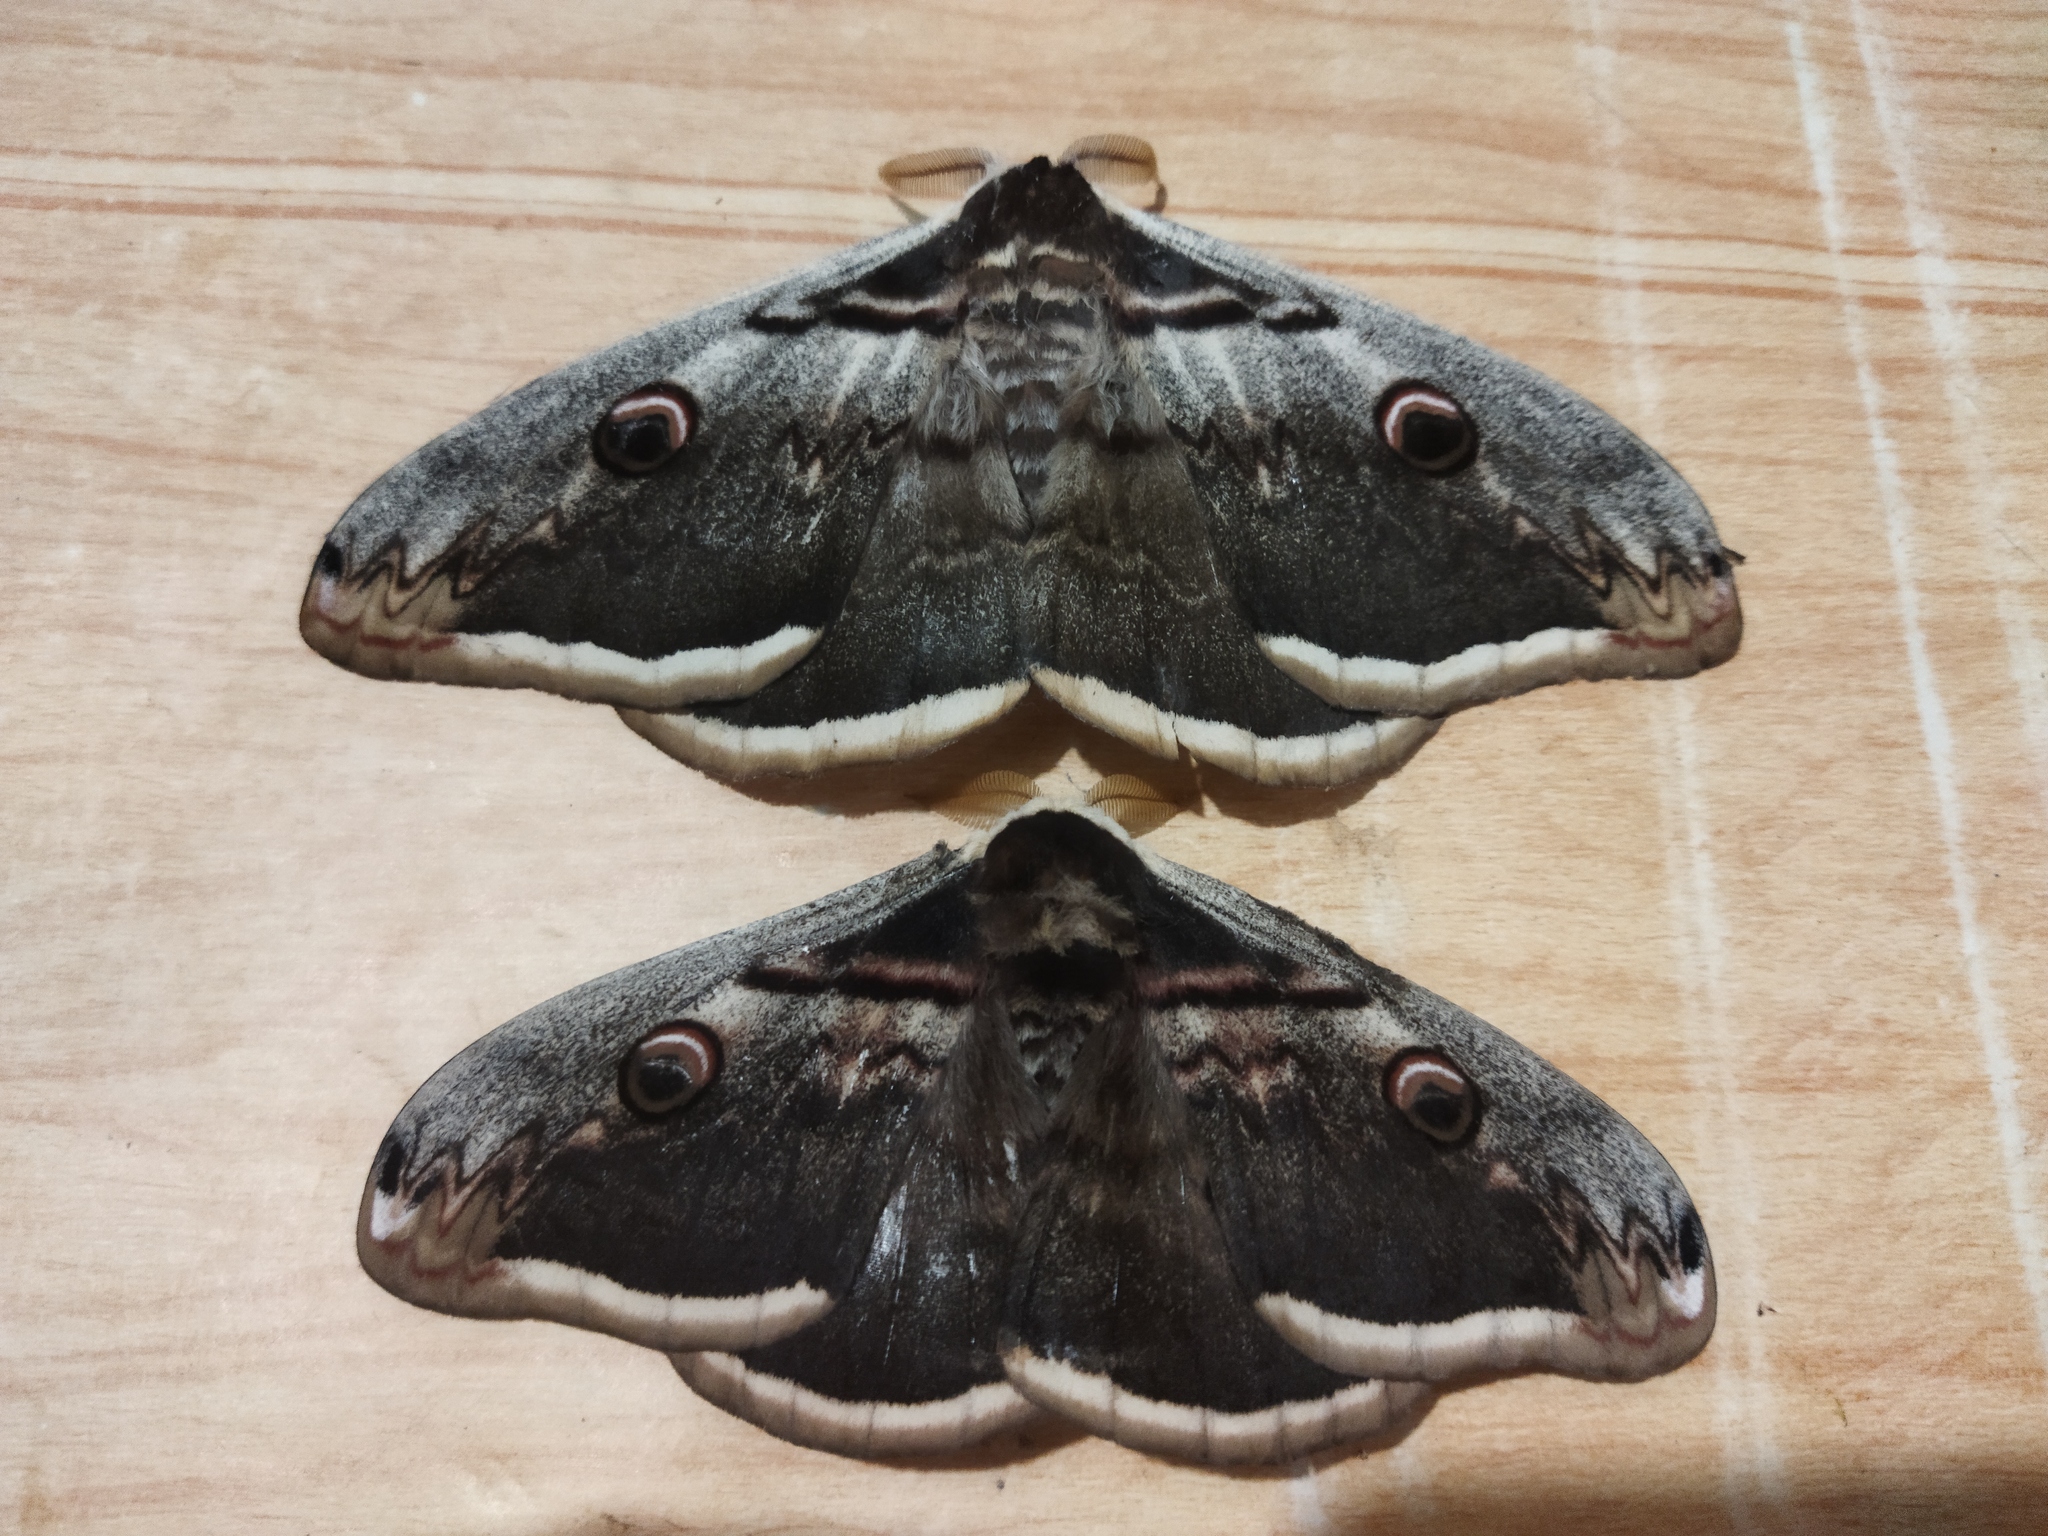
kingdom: Animalia
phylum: Arthropoda
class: Insecta
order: Lepidoptera
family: Saturniidae
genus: Saturnia
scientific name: Saturnia pyri
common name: Great peacock moth
